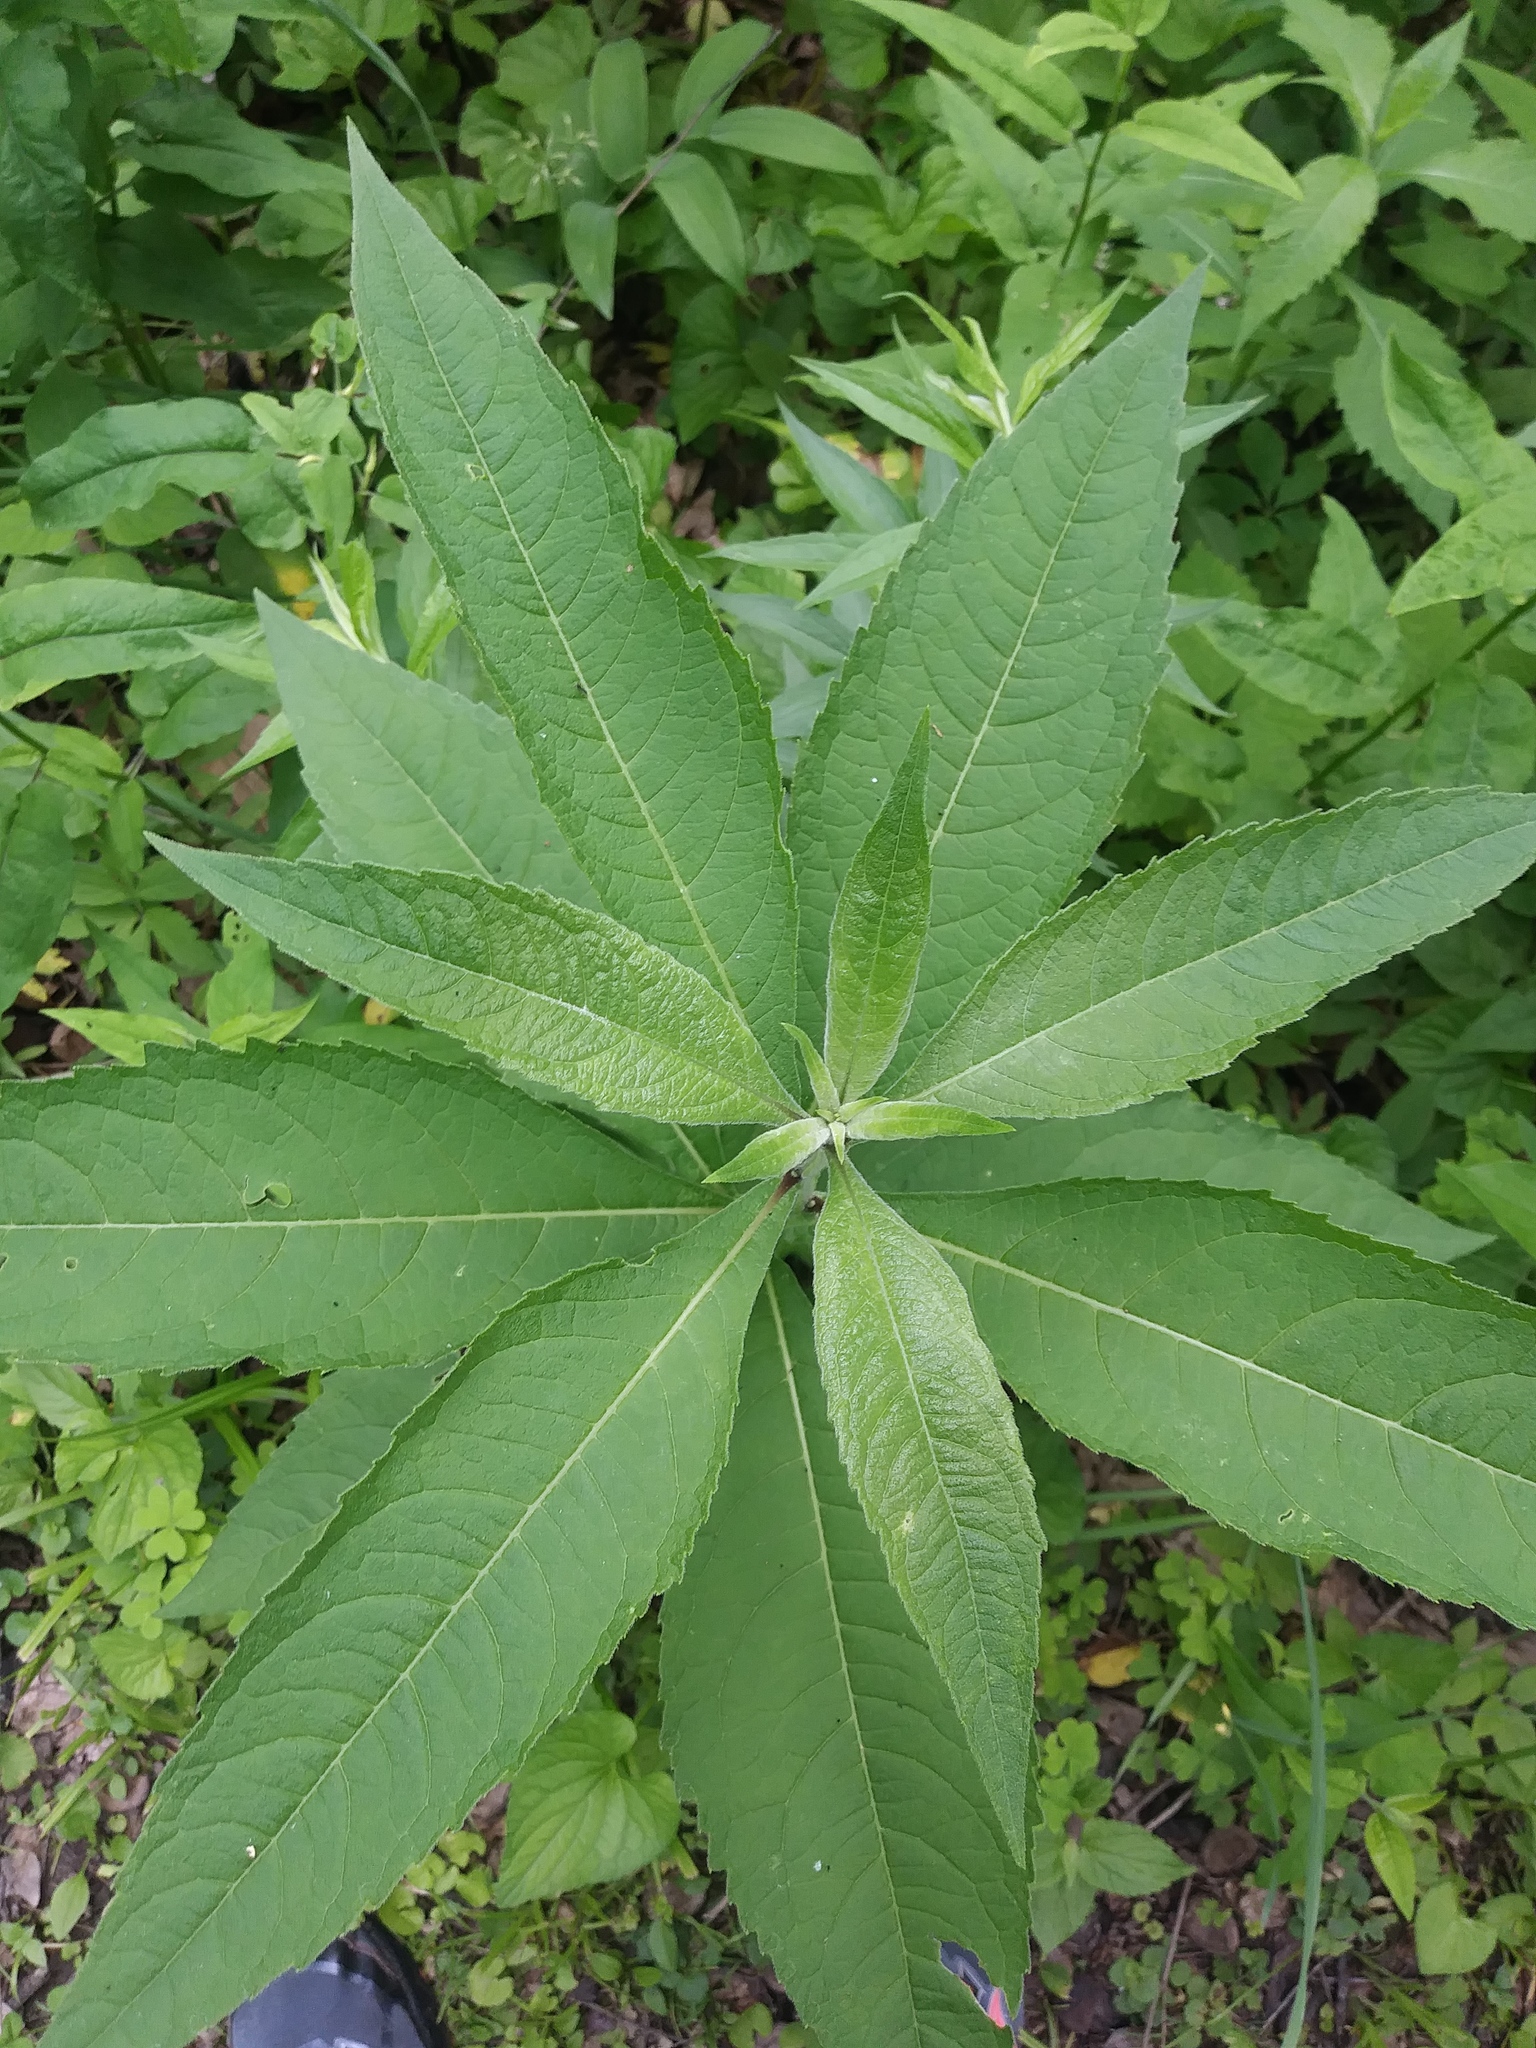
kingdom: Plantae
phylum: Tracheophyta
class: Magnoliopsida
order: Asterales
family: Asteraceae
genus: Verbesina
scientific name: Verbesina alternifolia
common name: Wingstem
